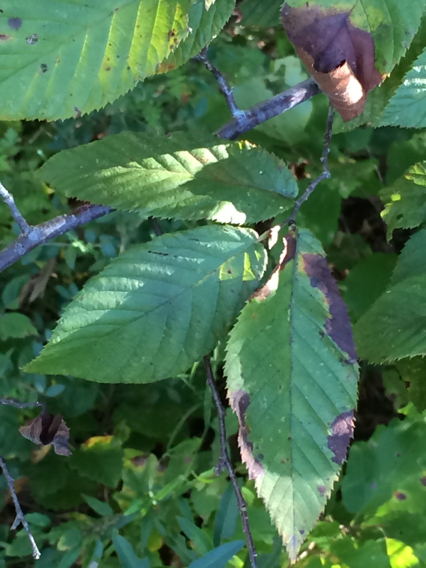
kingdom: Plantae
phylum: Tracheophyta
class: Magnoliopsida
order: Fagales
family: Betulaceae
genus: Carpinus
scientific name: Carpinus caroliniana
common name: American hornbeam
